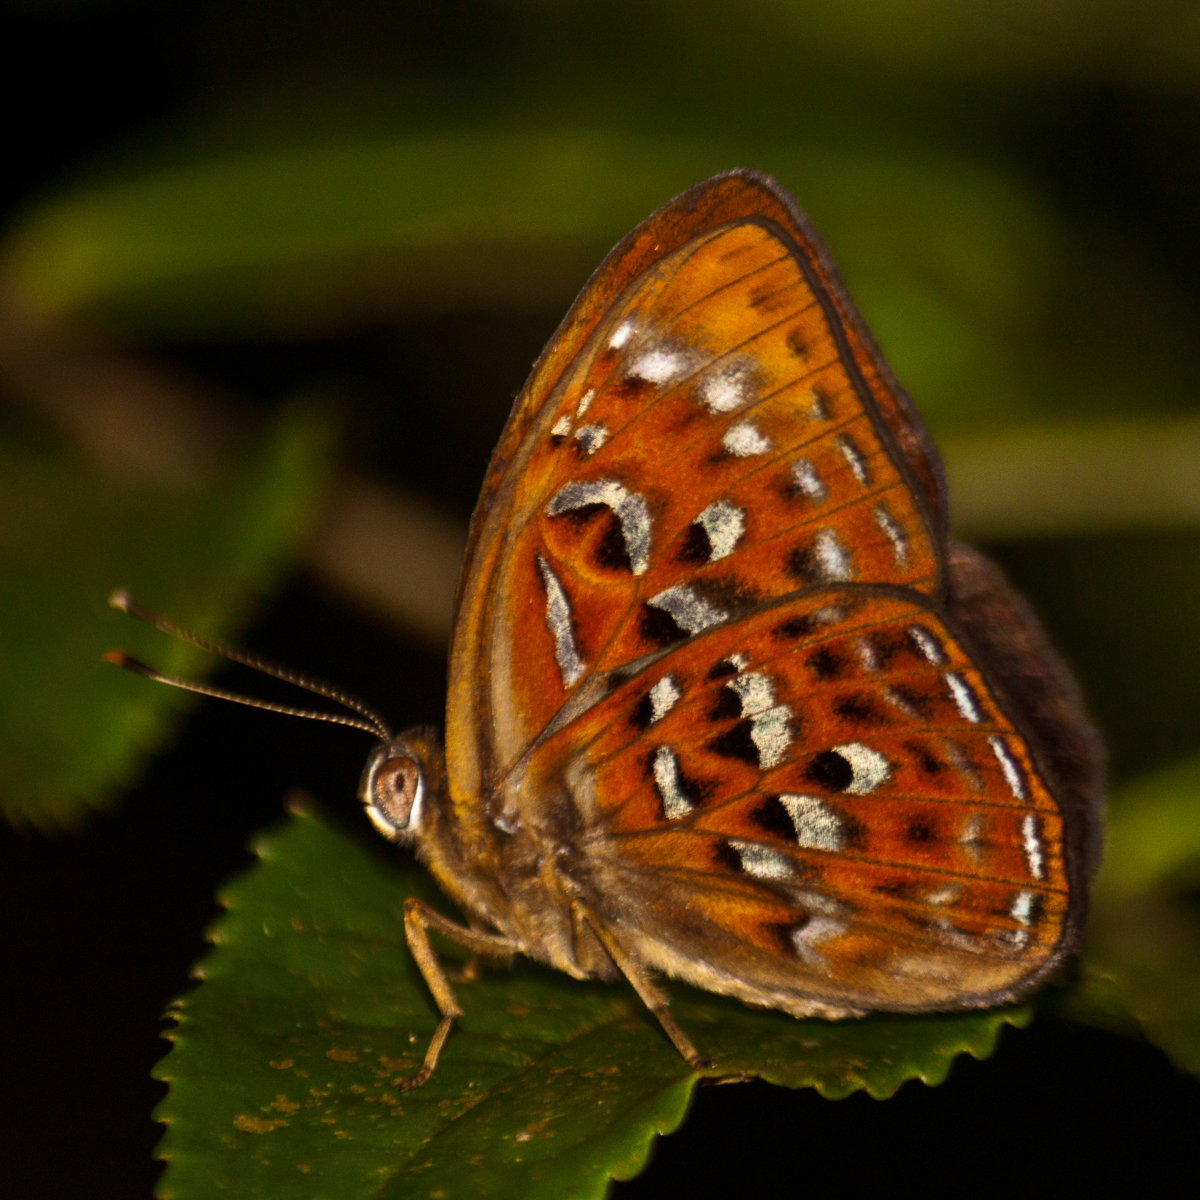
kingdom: Animalia
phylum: Arthropoda
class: Insecta
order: Lepidoptera
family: Erebidae
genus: Dysschema
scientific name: Dysschema
